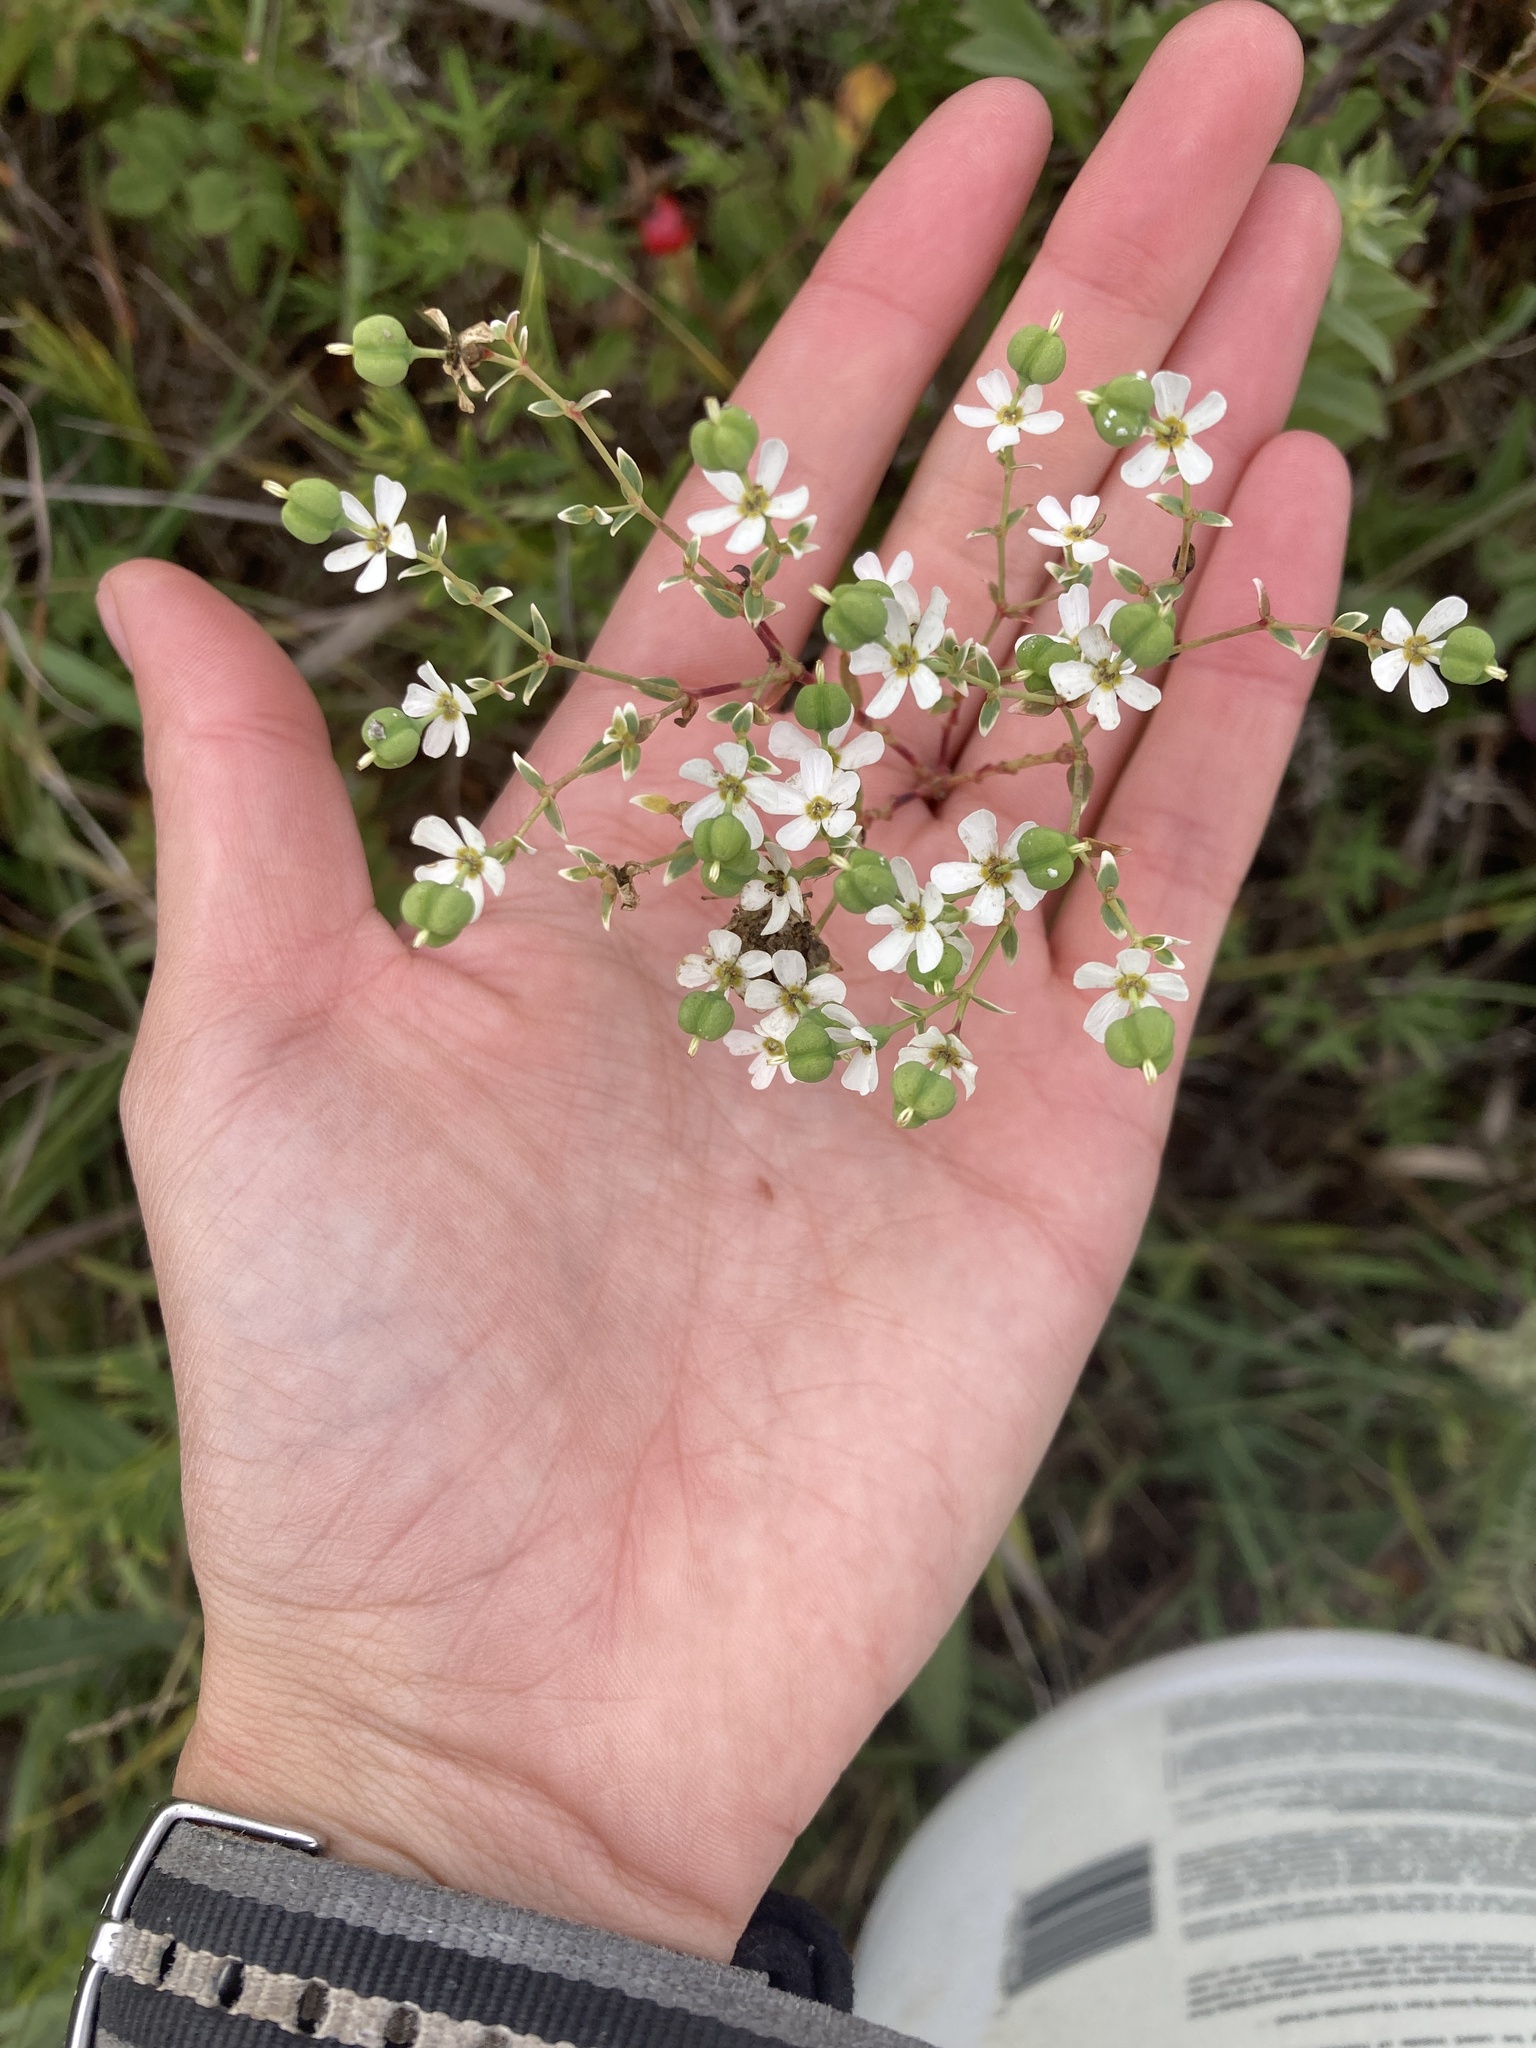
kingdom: Plantae
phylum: Tracheophyta
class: Magnoliopsida
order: Malpighiales
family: Euphorbiaceae
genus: Euphorbia
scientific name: Euphorbia corollata
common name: Flowering spurge
